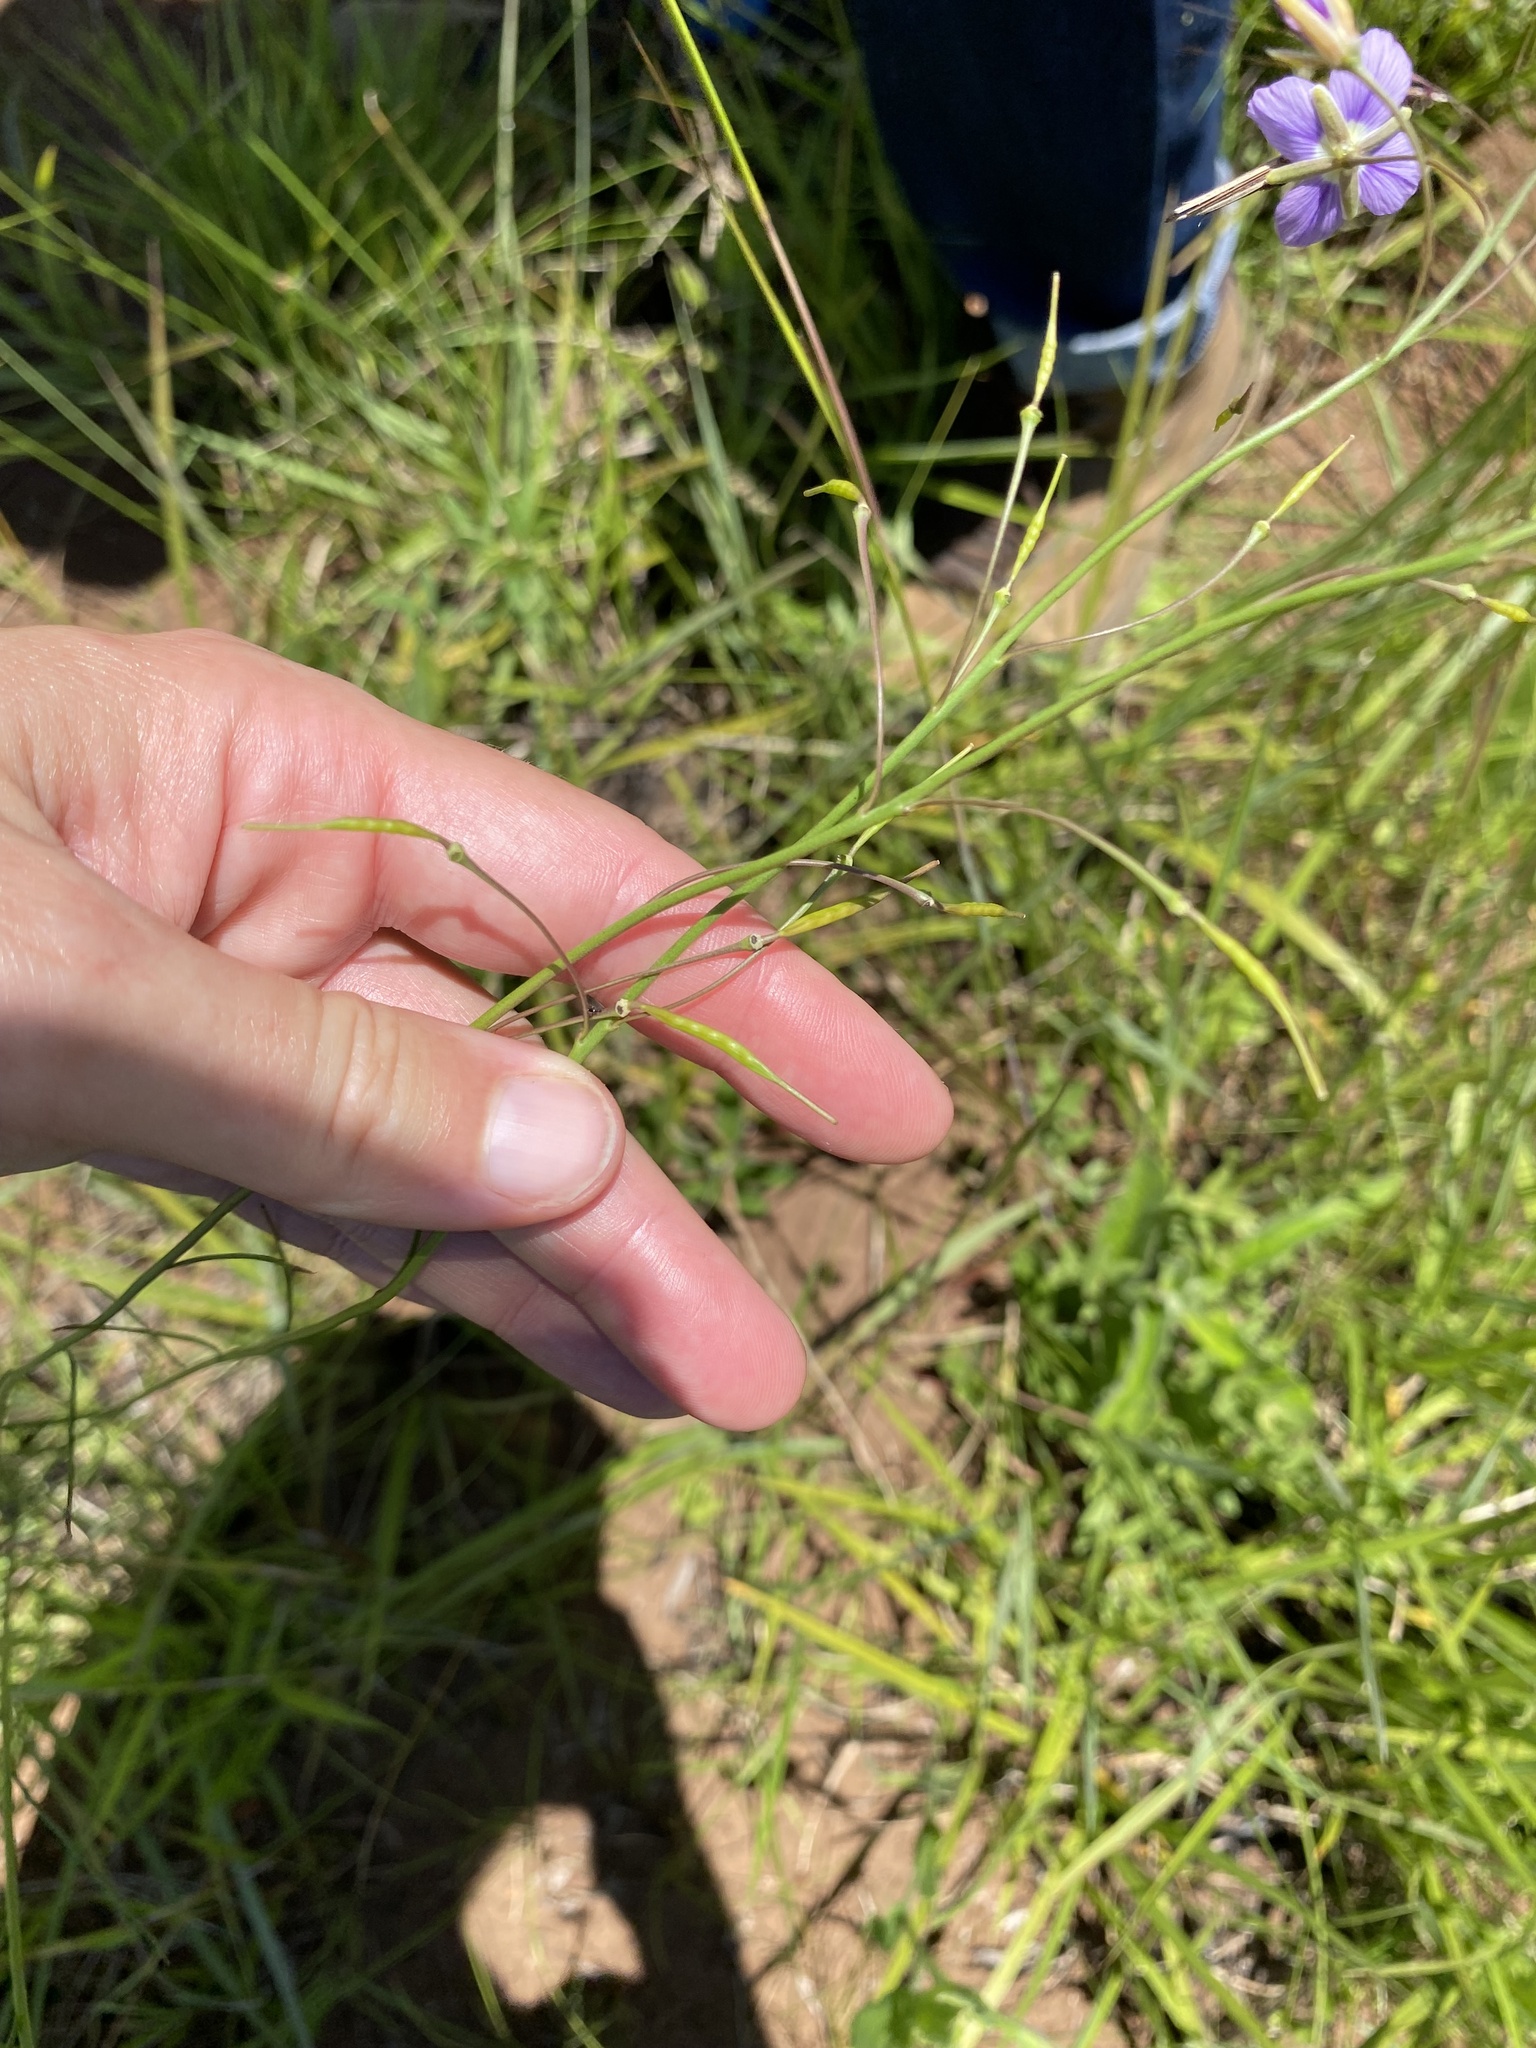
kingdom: Plantae
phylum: Tracheophyta
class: Magnoliopsida
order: Brassicales
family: Brassicaceae
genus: Heliophila
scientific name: Heliophila rigidiuscula
